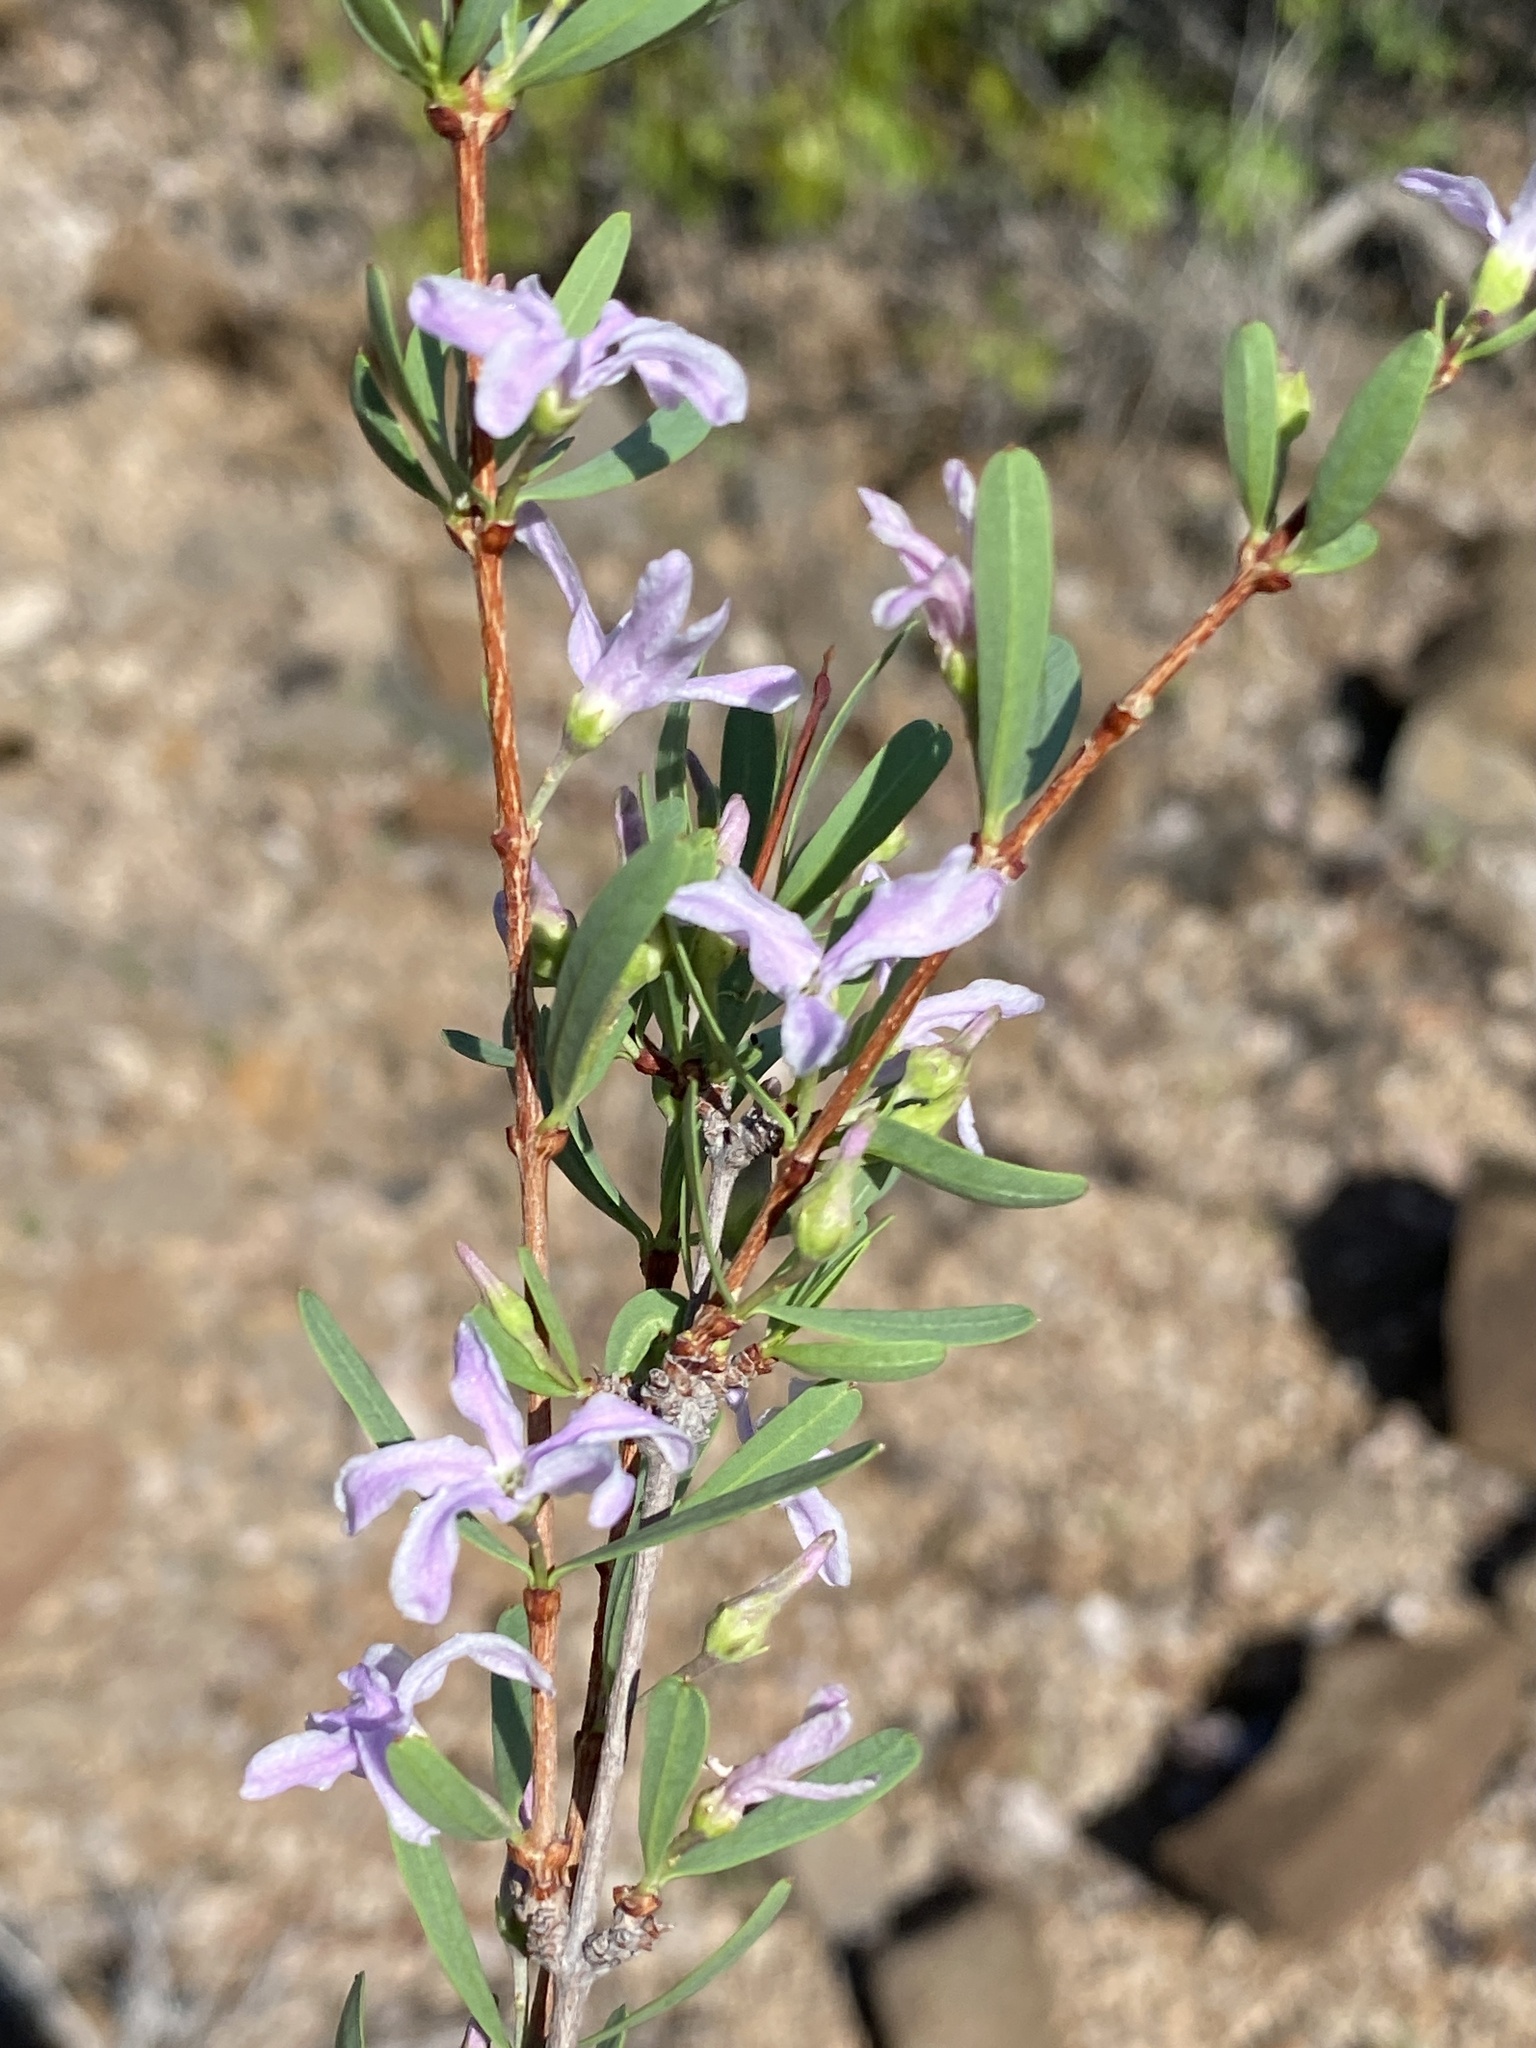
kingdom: Plantae
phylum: Tracheophyta
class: Magnoliopsida
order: Gentianales
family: Apocynaceae
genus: Cryptolepis
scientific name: Cryptolepis decidua
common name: Jackalplant
